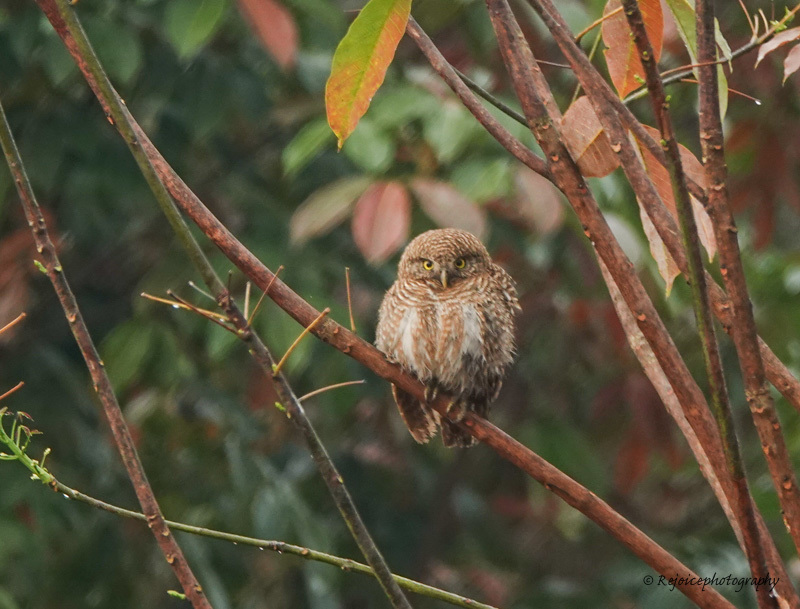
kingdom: Animalia
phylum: Chordata
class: Aves
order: Strigiformes
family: Strigidae
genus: Glaucidium
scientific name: Glaucidium cuculoides
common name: Asian barred owlet
